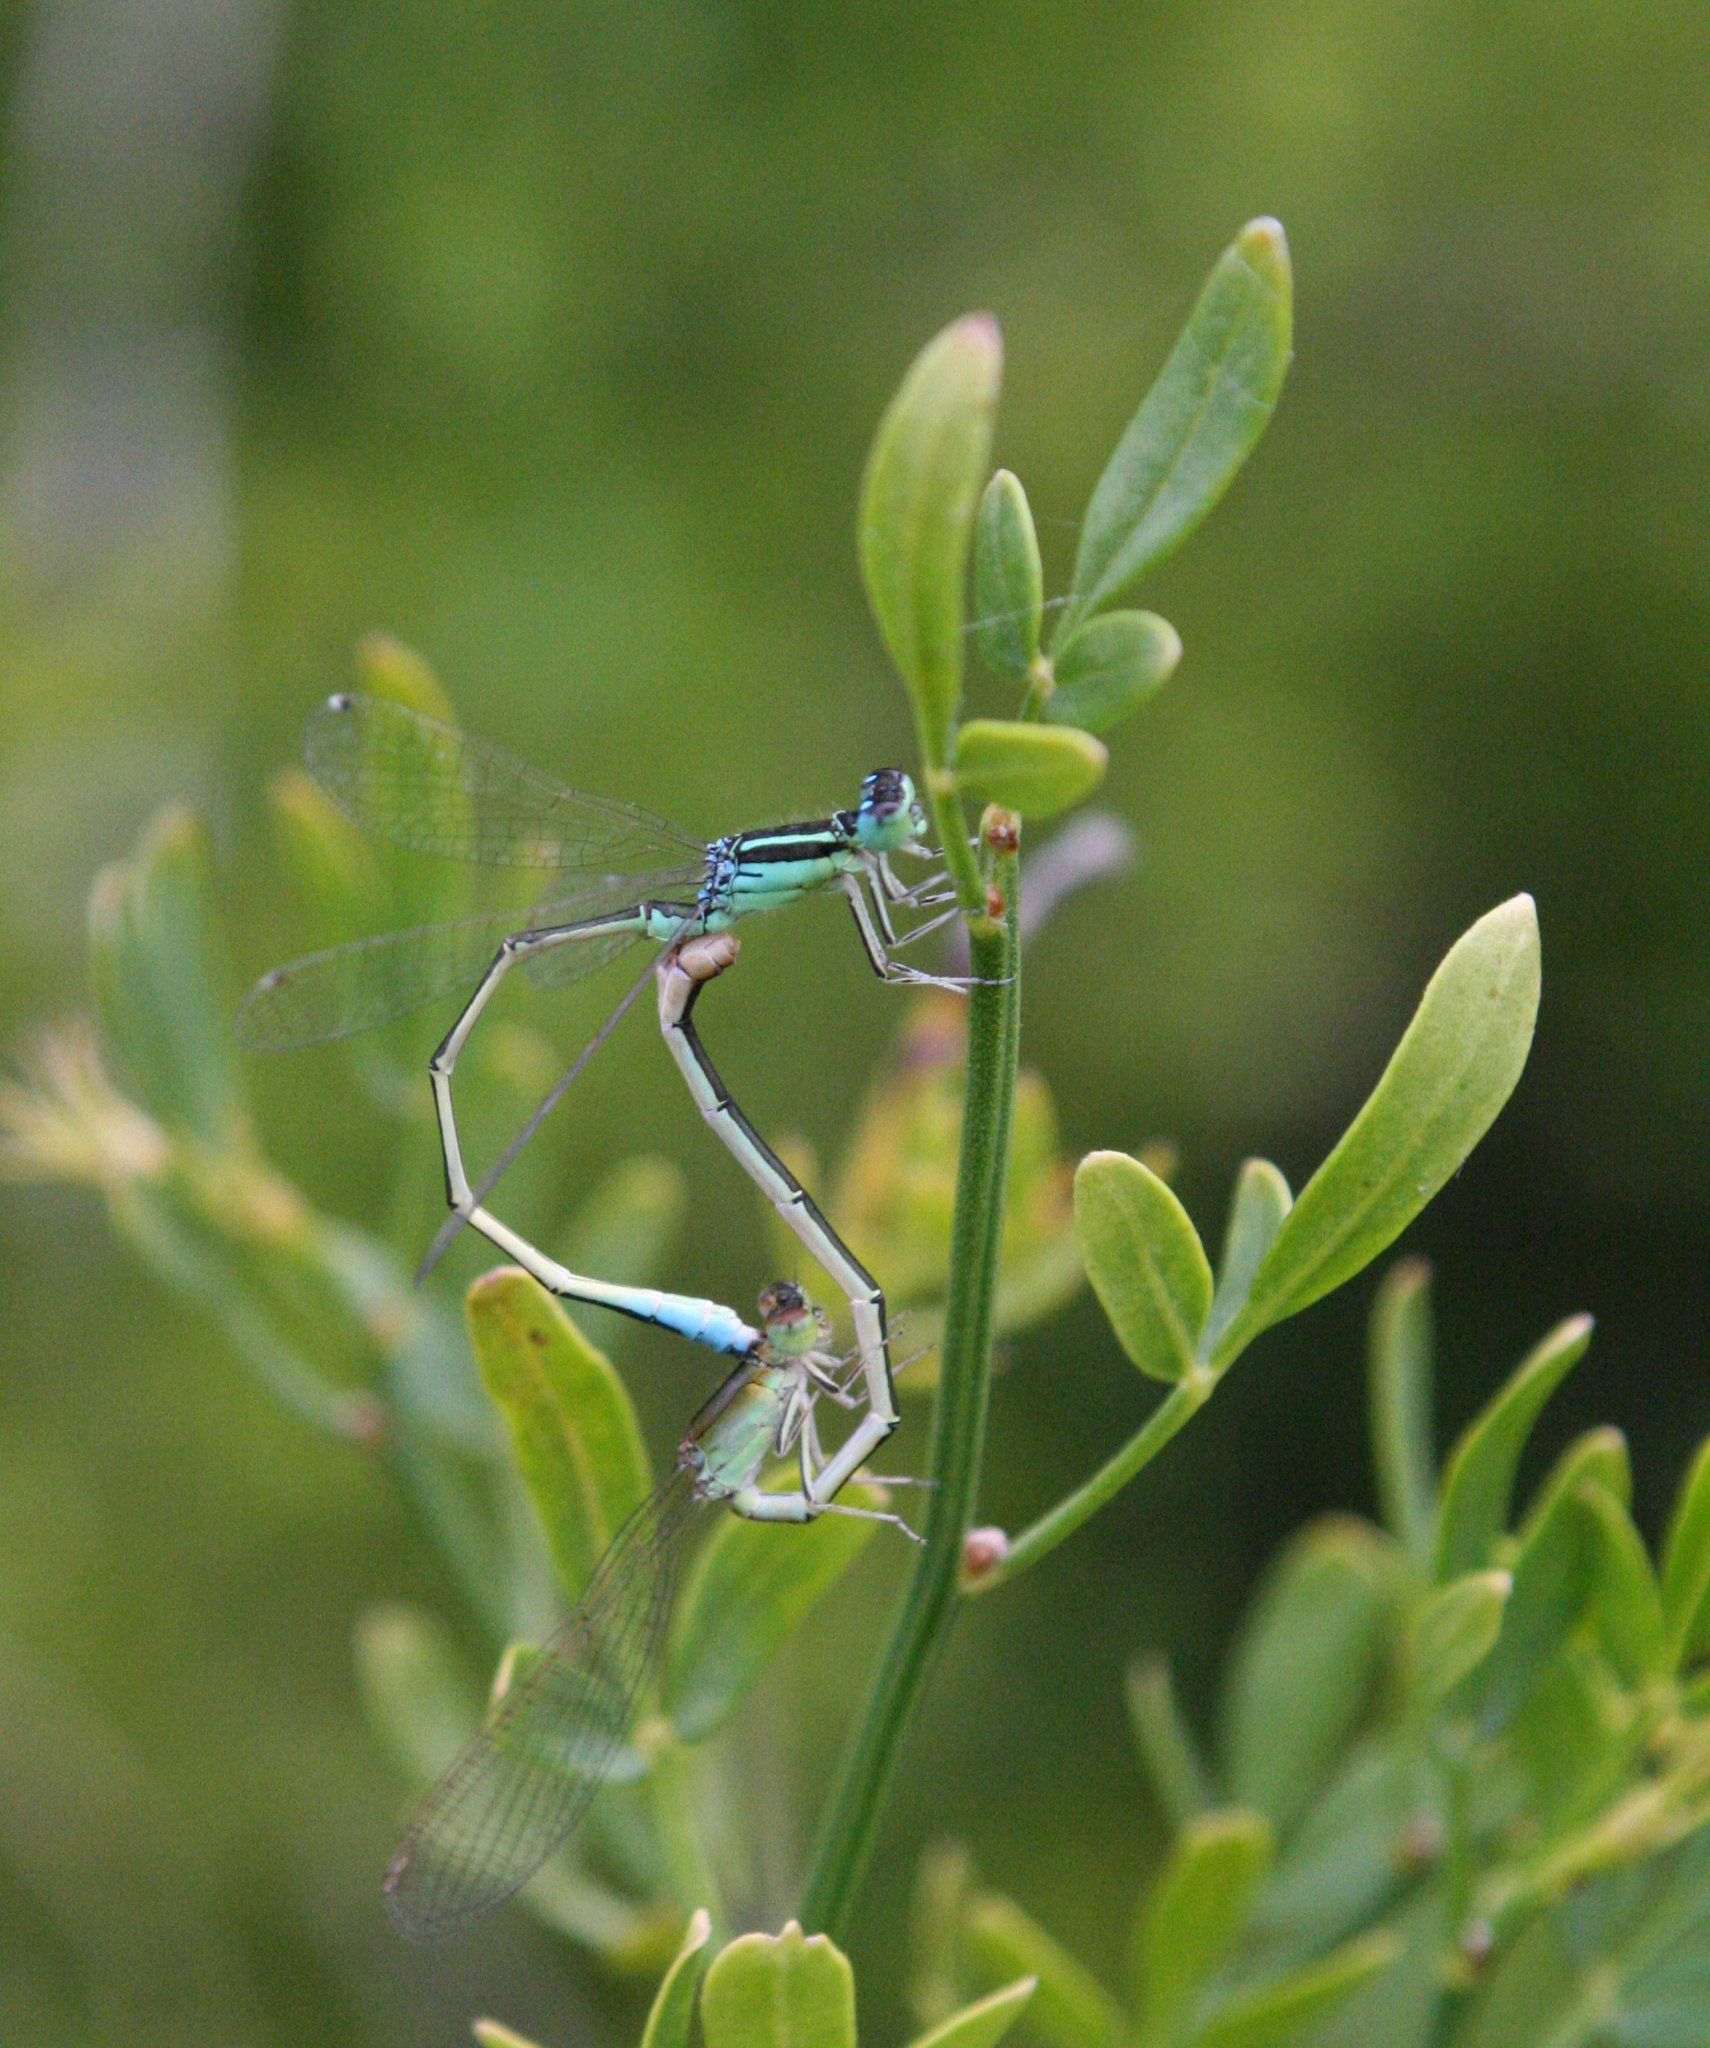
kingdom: Plantae
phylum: Tracheophyta
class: Magnoliopsida
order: Lamiales
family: Oleaceae
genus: Chrysojasminum
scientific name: Chrysojasminum fruticans
